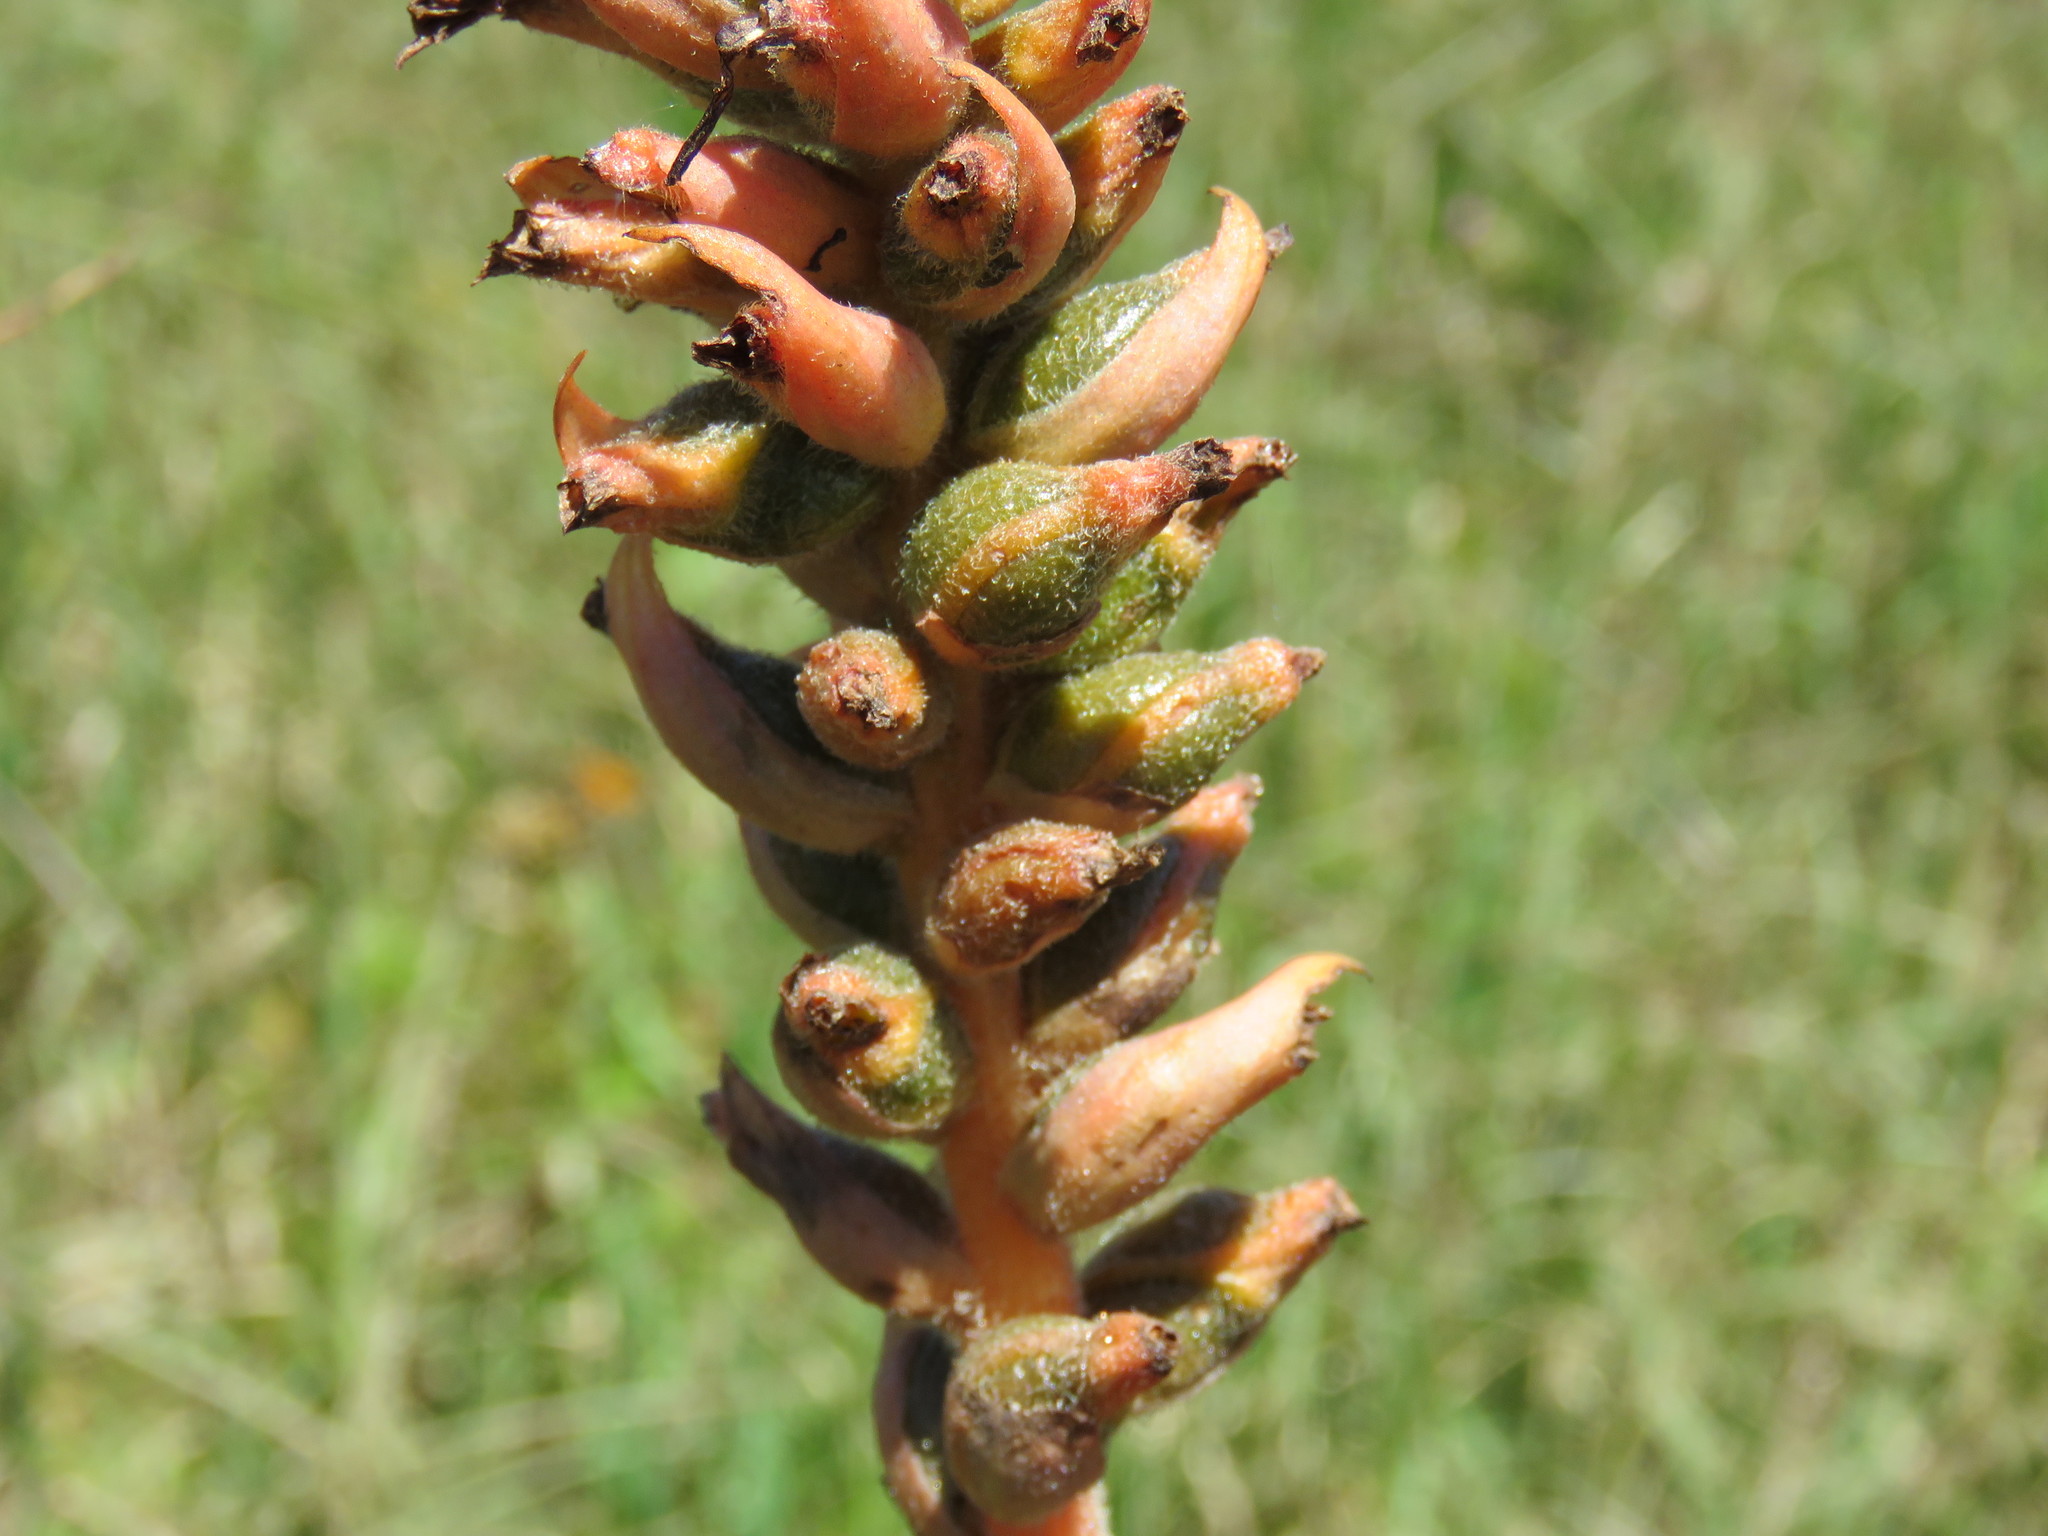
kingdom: Plantae
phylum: Tracheophyta
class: Liliopsida
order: Asparagales
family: Orchidaceae
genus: Dichromanthus
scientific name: Dichromanthus cinnabarinus
